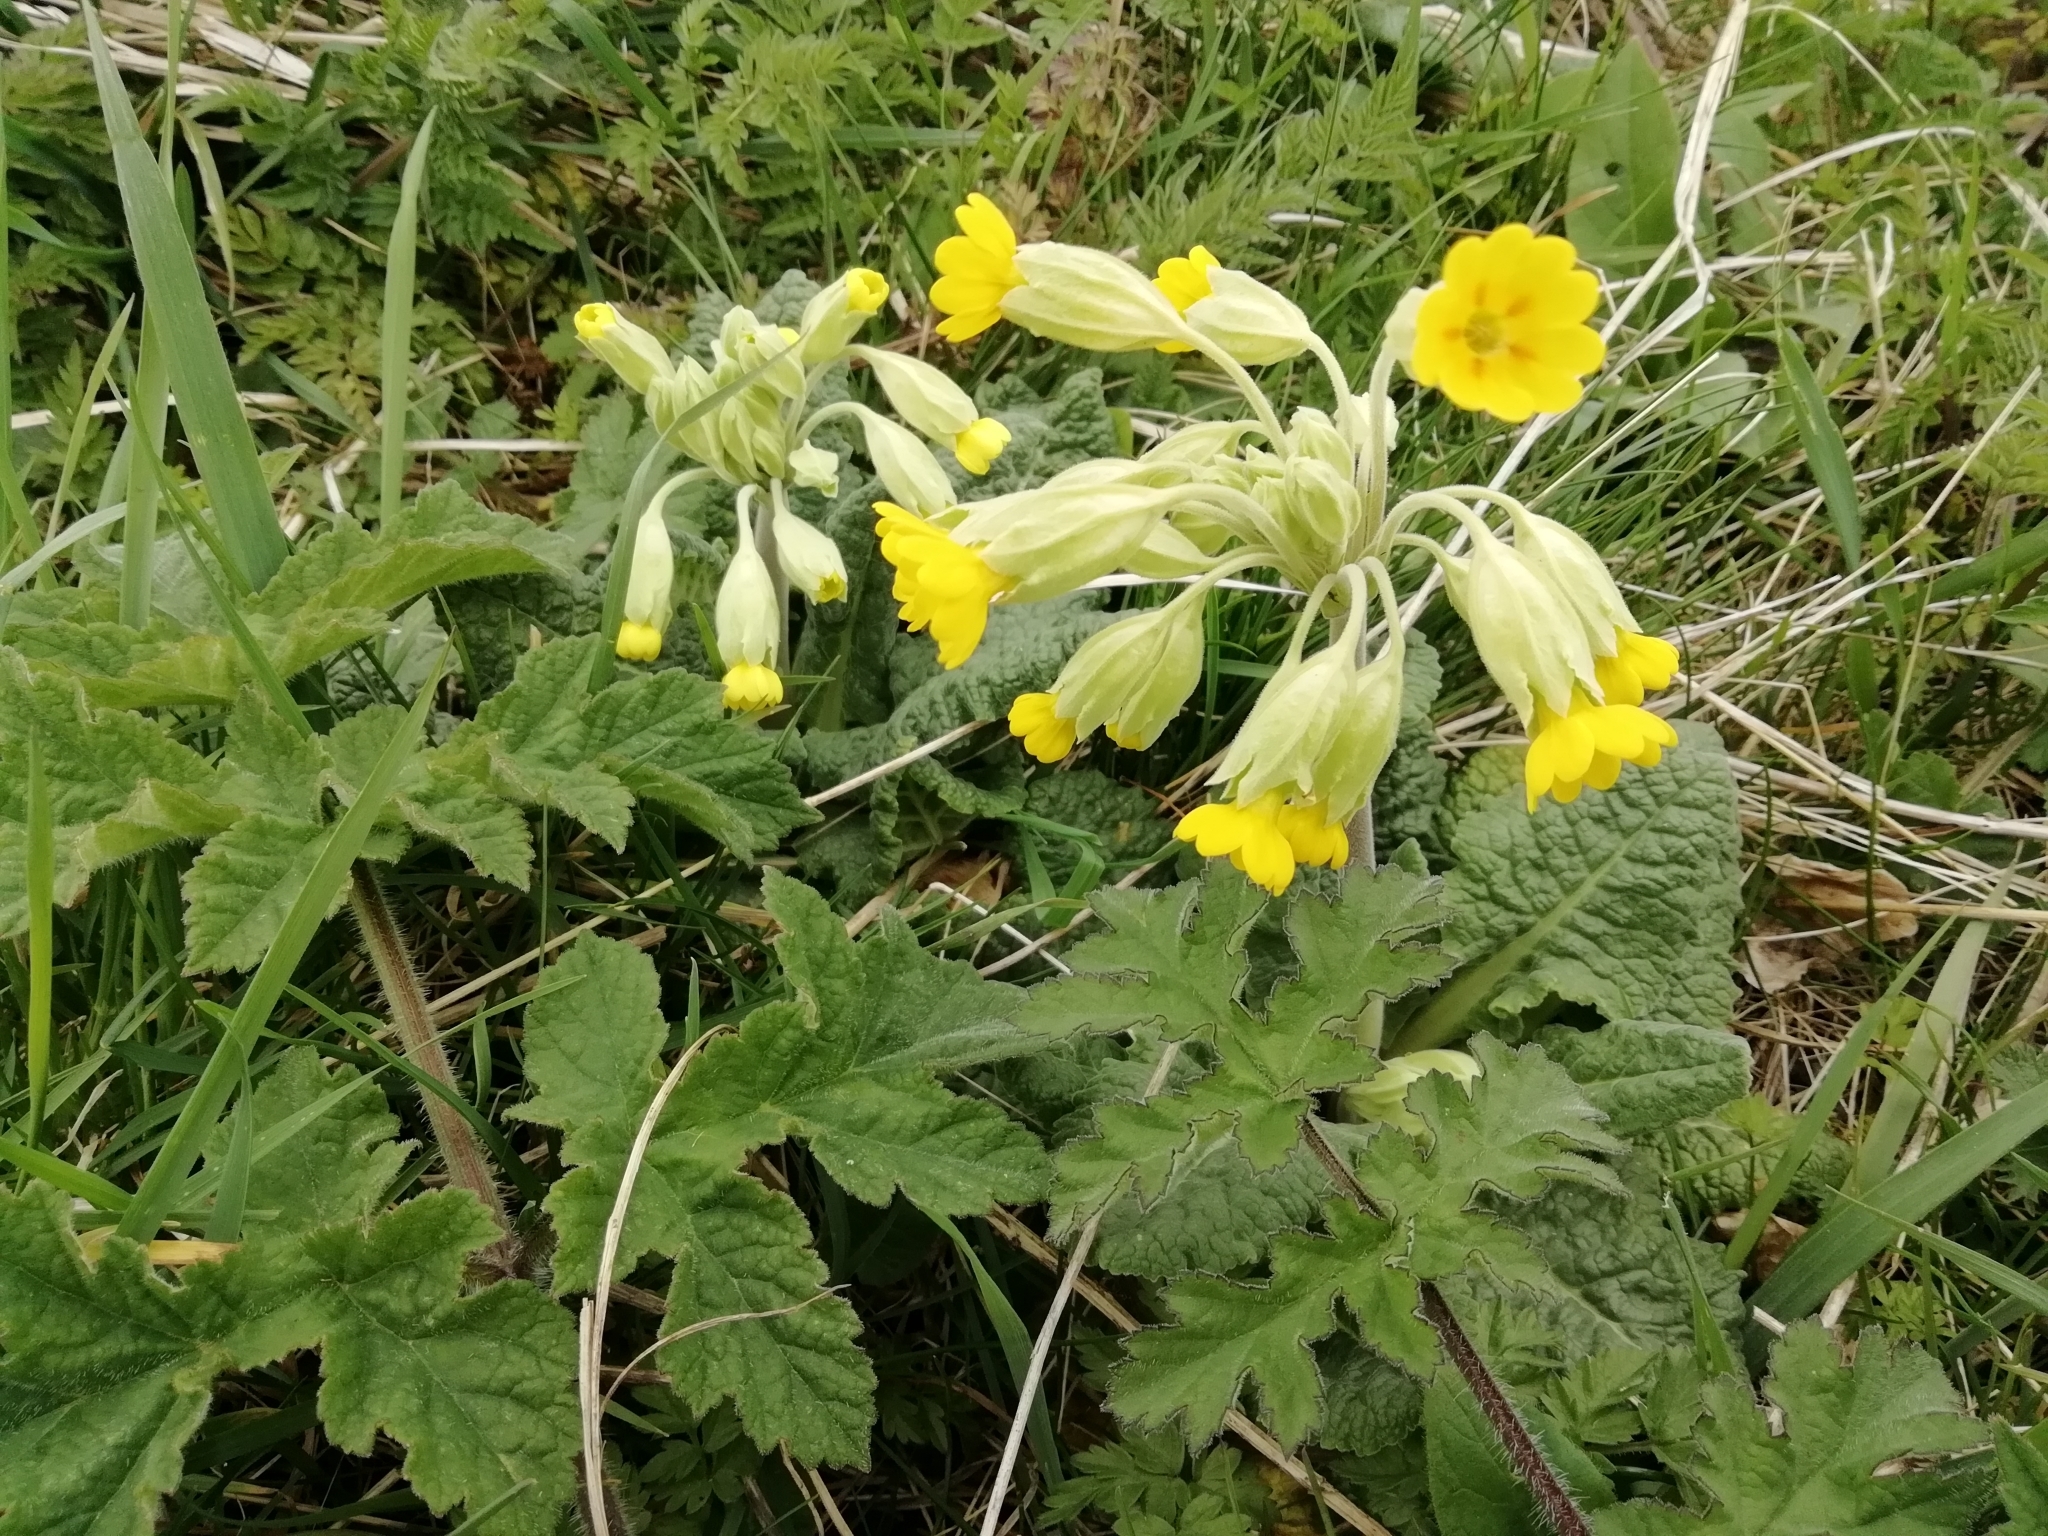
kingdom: Plantae
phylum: Tracheophyta
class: Magnoliopsida
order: Ericales
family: Primulaceae
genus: Primula
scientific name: Primula veris
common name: Cowslip
